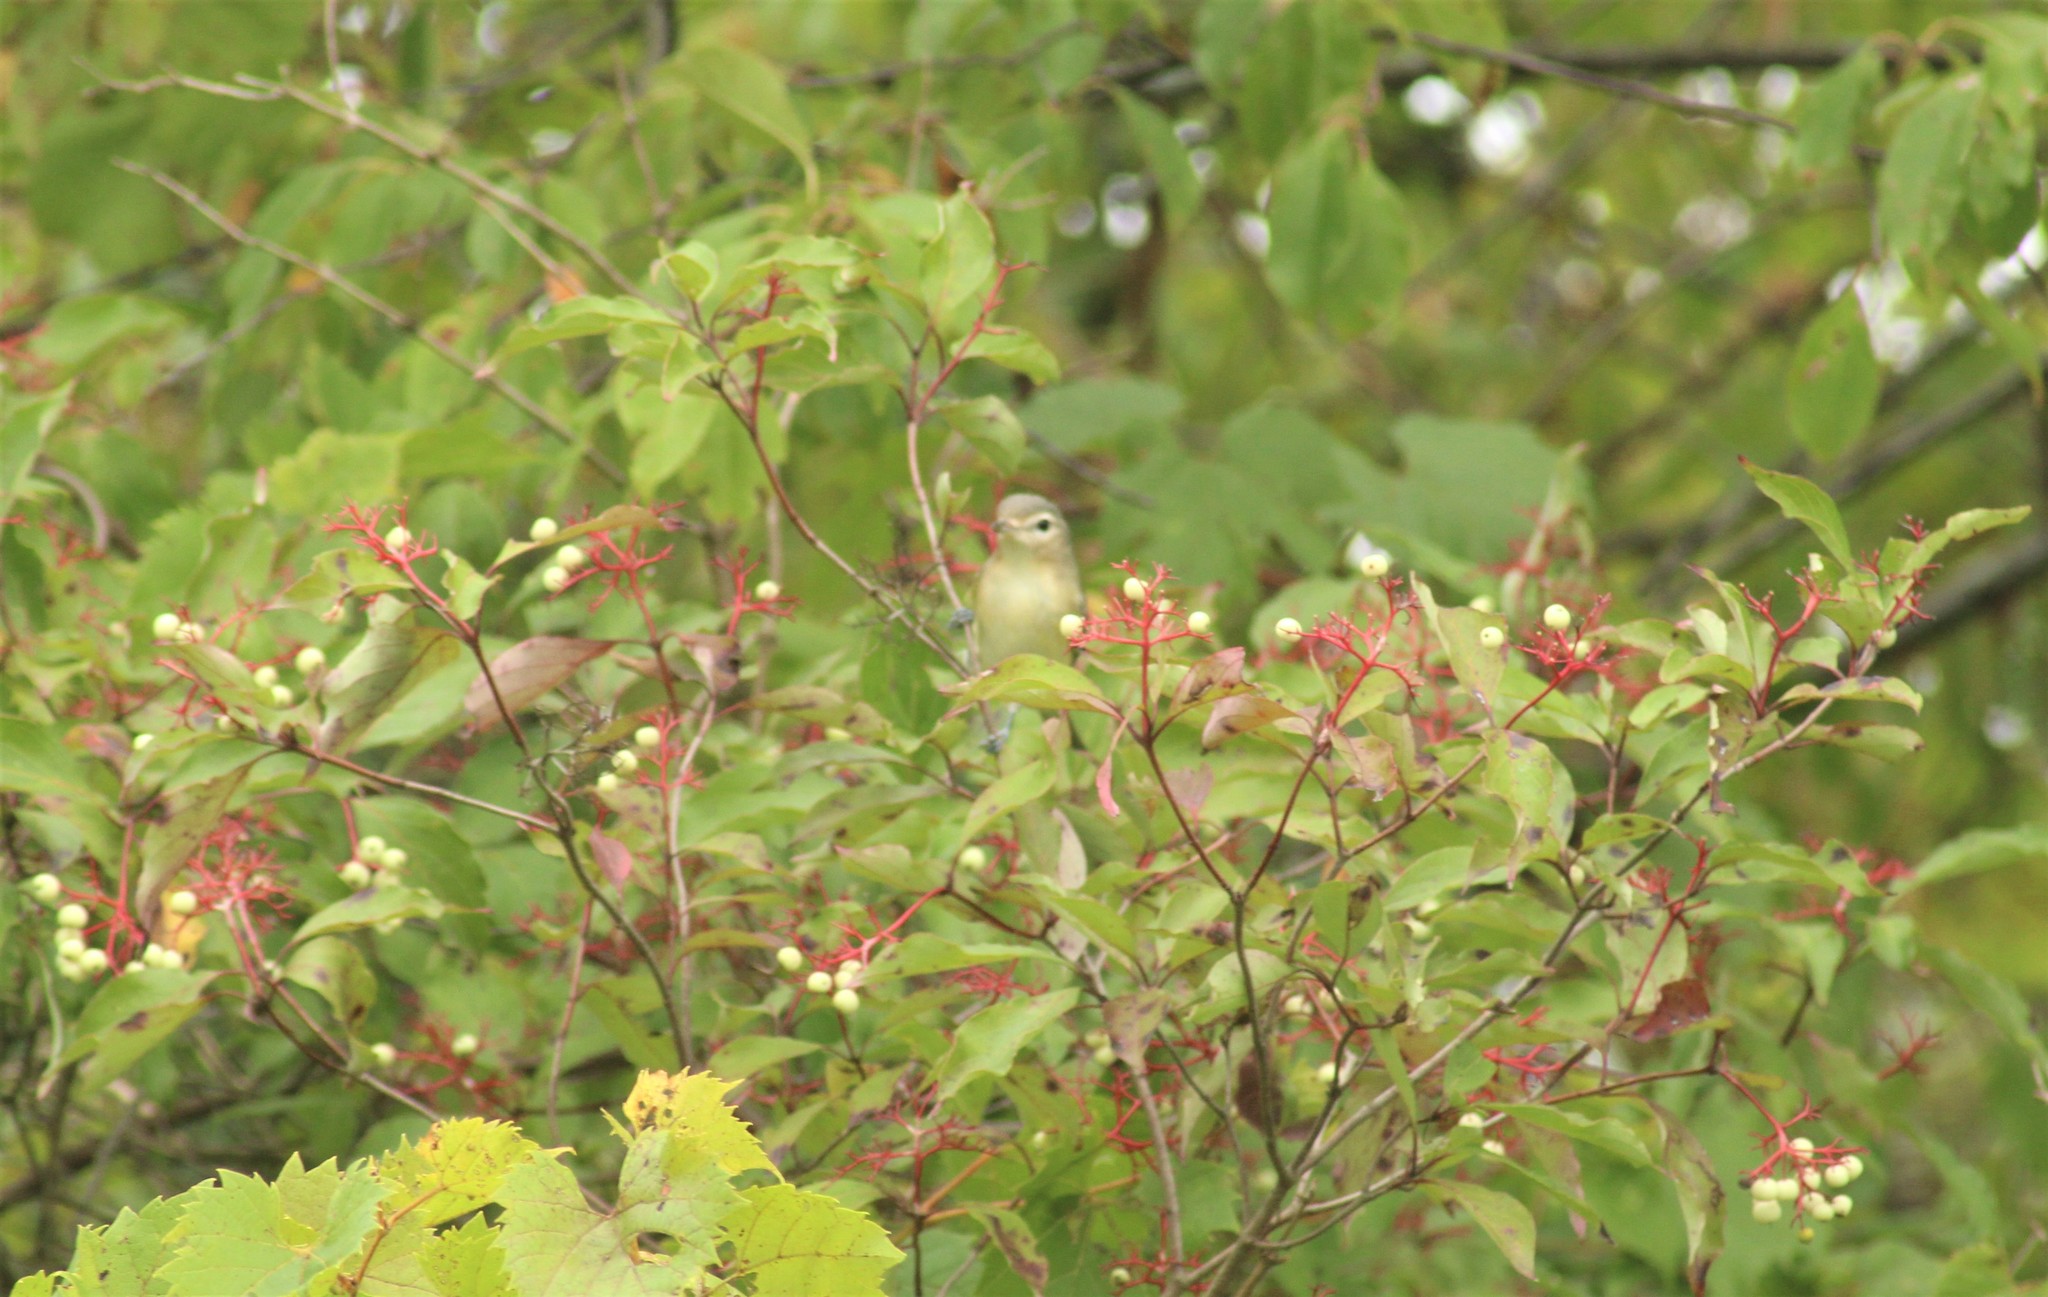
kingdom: Animalia
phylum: Chordata
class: Aves
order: Passeriformes
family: Vireonidae
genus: Vireo
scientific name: Vireo gilvus
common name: Warbling vireo
